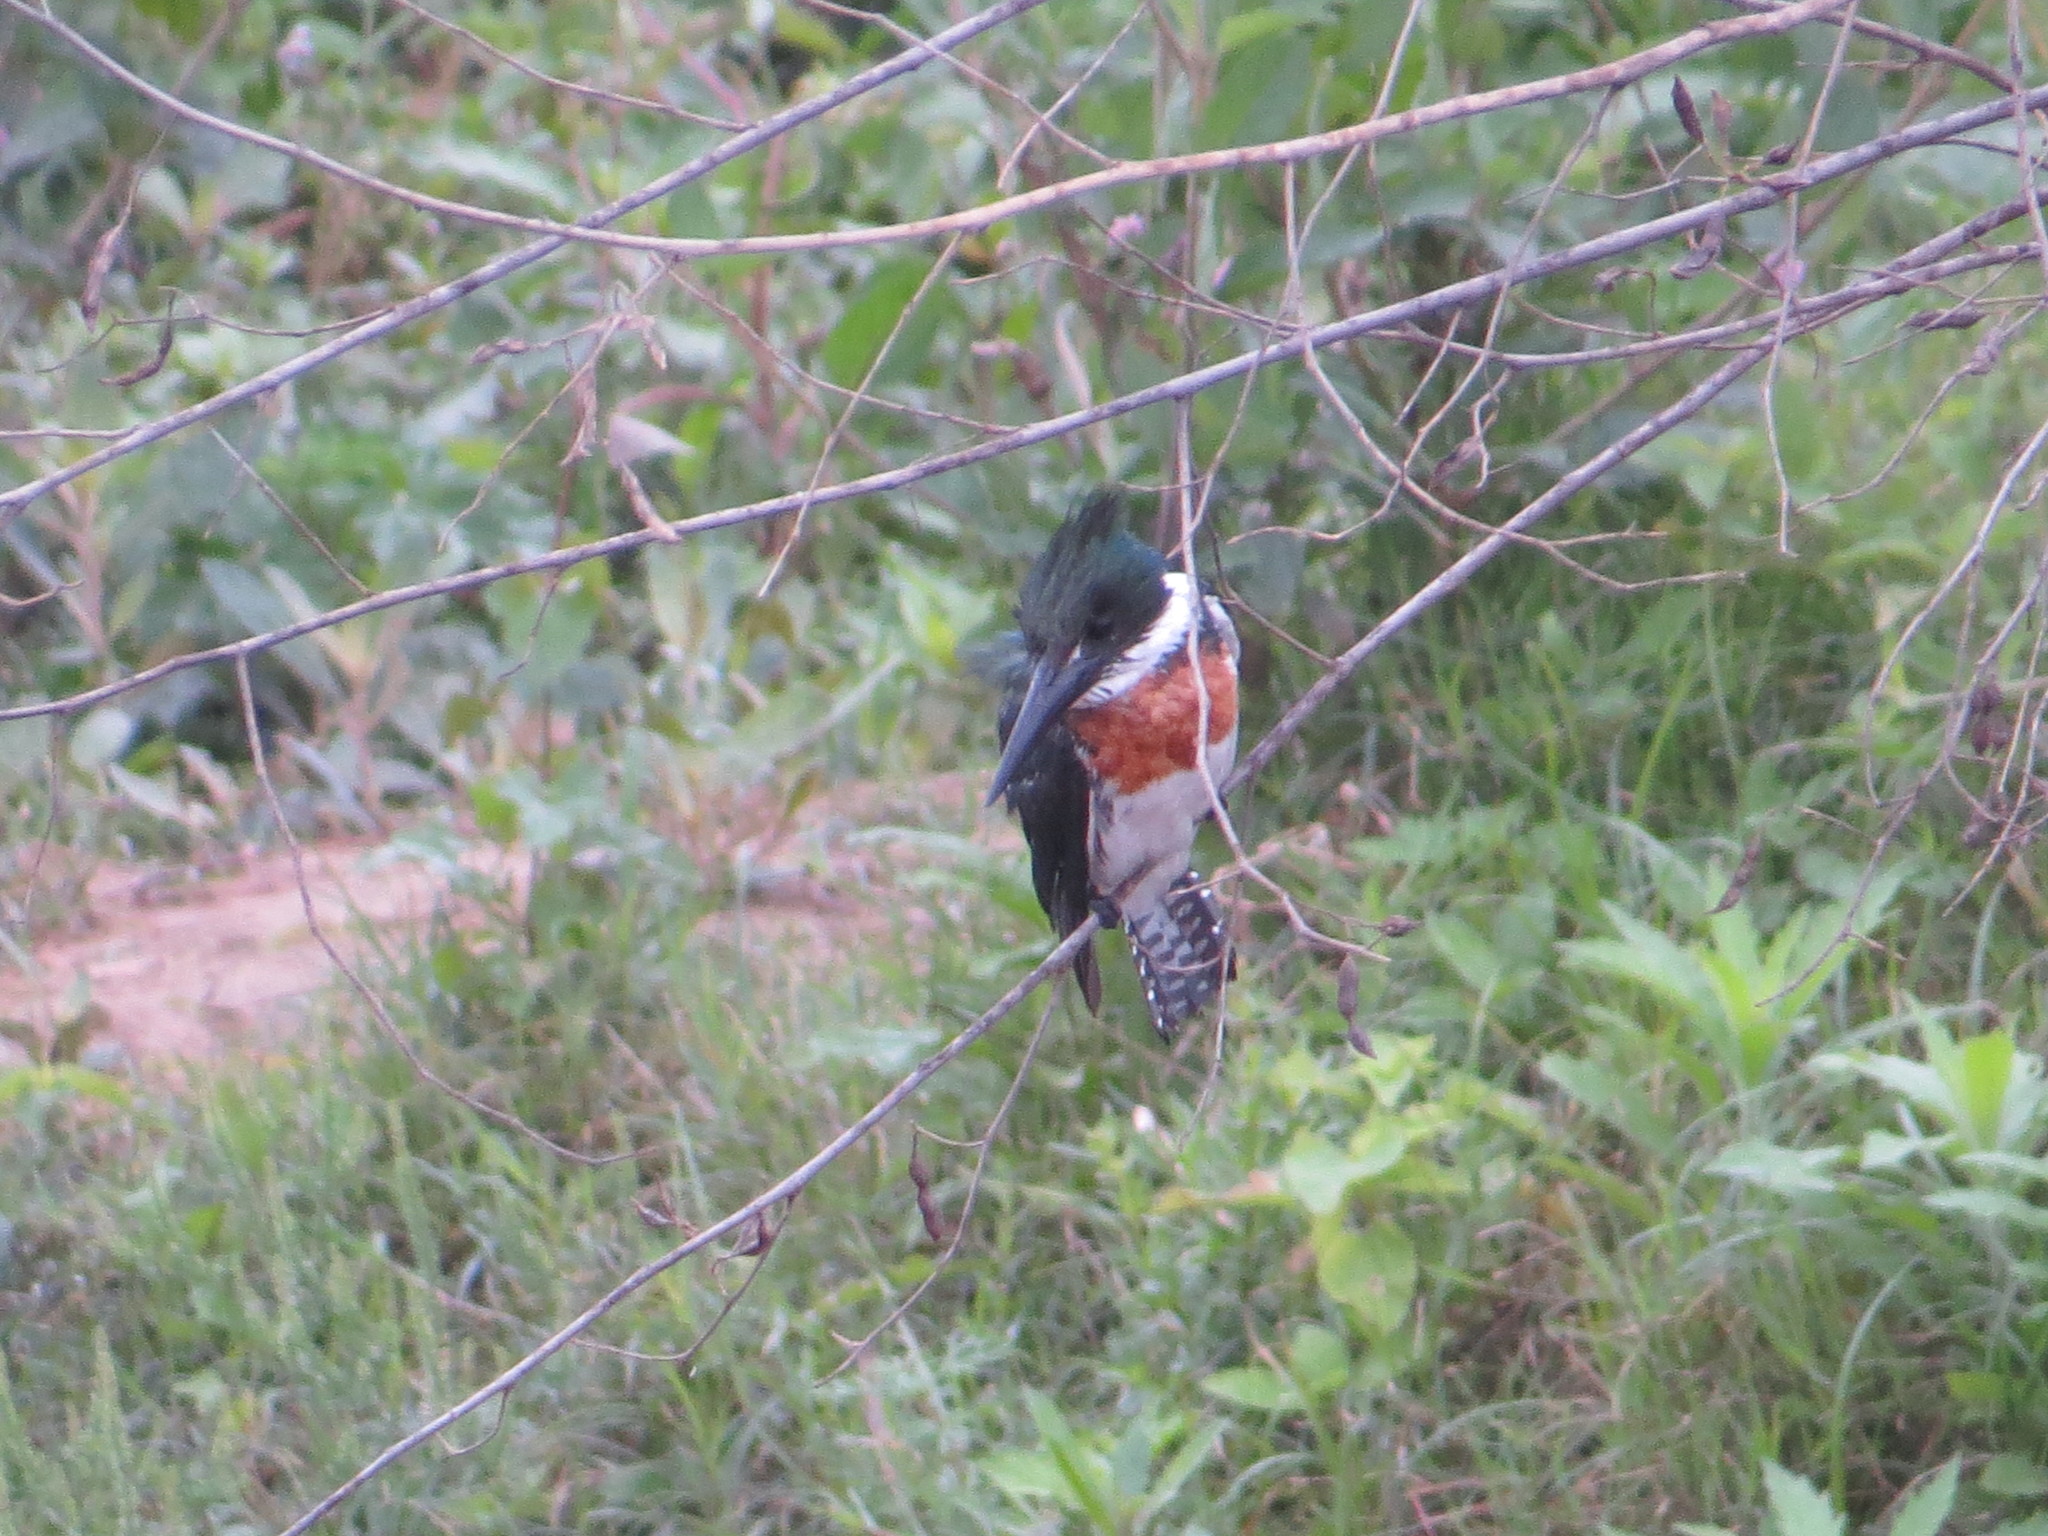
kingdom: Animalia
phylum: Chordata
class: Aves
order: Coraciiformes
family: Alcedinidae
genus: Chloroceryle
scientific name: Chloroceryle amazona
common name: Amazon kingfisher
